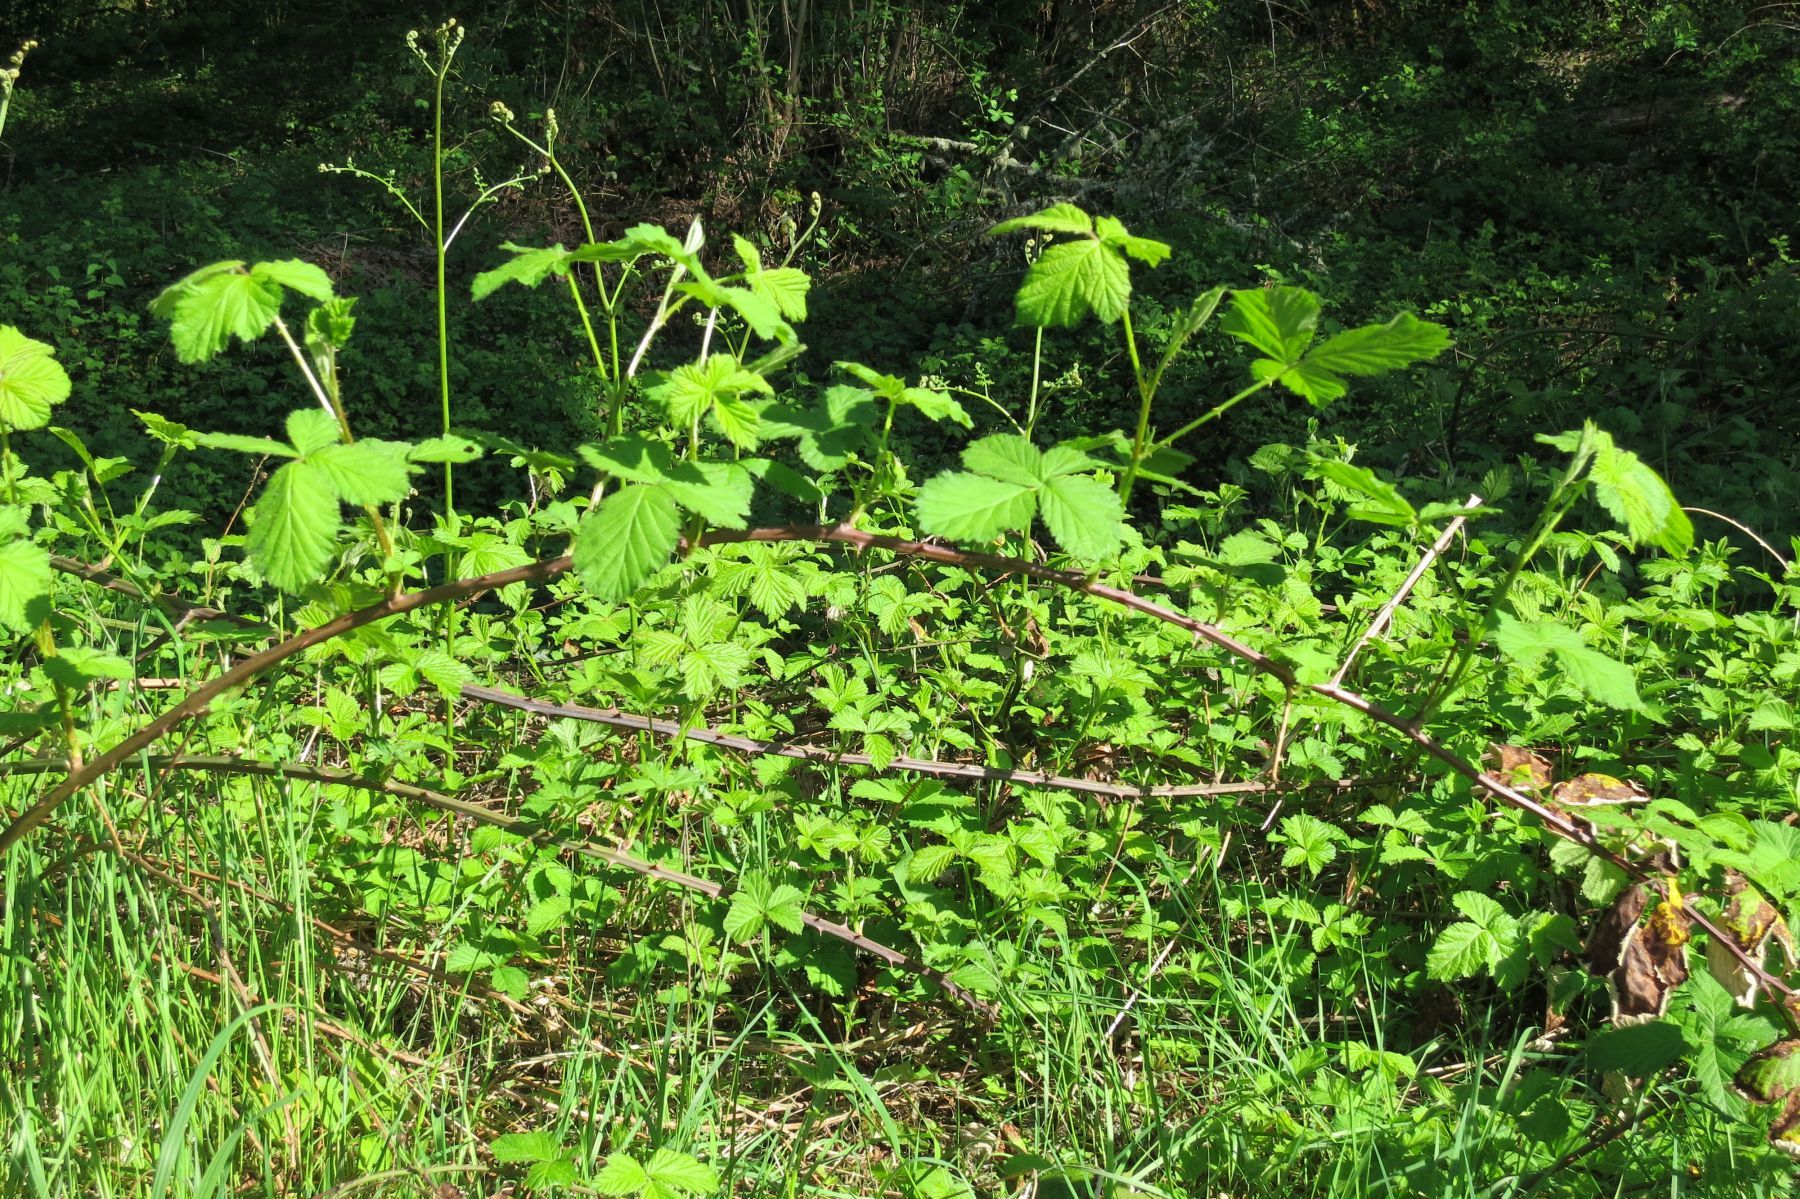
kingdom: Plantae
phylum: Tracheophyta
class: Magnoliopsida
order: Rosales
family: Rosaceae
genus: Rubus
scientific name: Rubus armeniacus
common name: Himalayan blackberry
